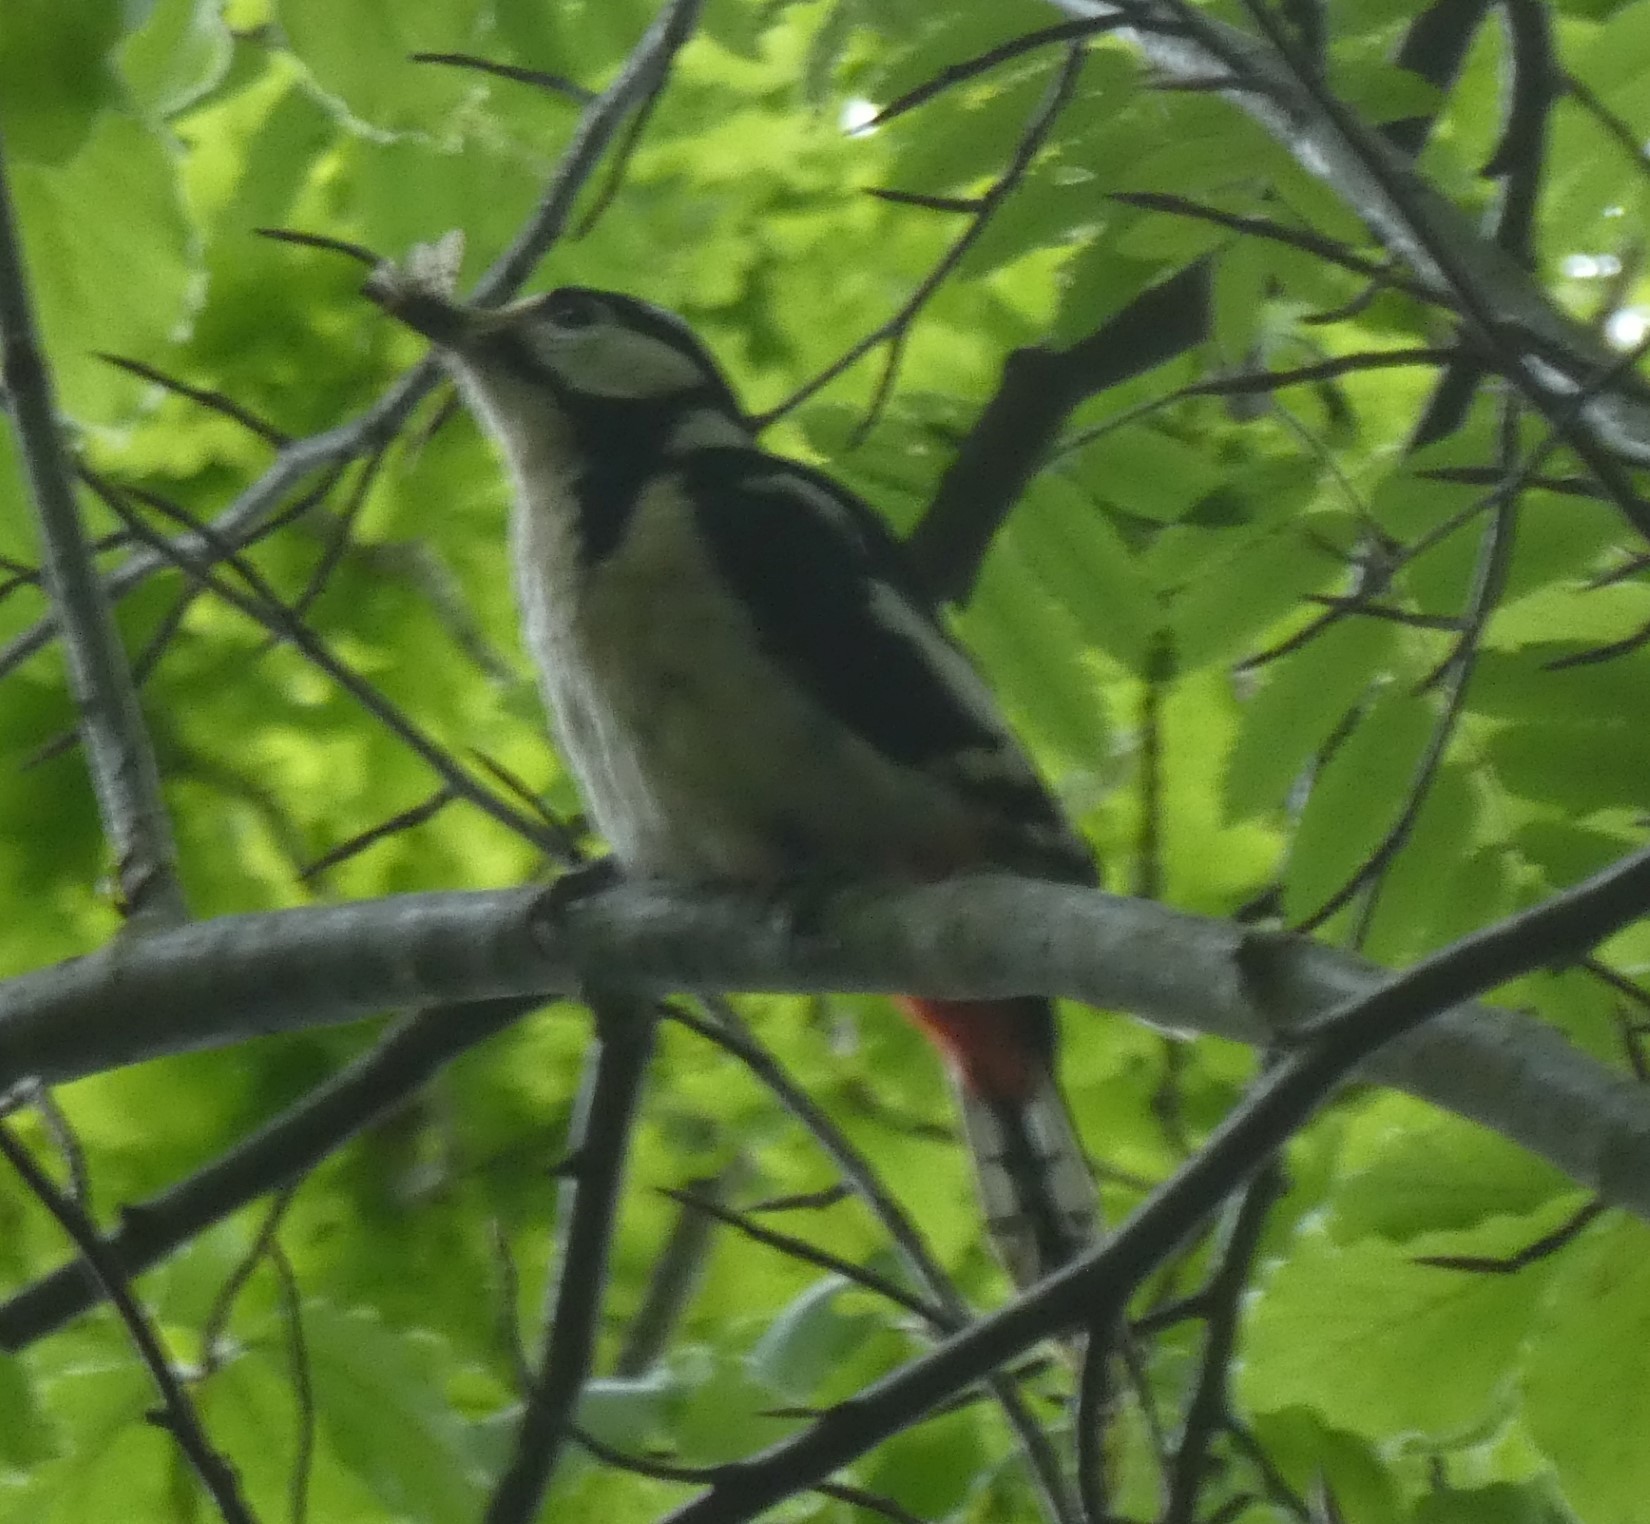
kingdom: Animalia
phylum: Chordata
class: Aves
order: Piciformes
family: Picidae
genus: Dendrocopos
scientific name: Dendrocopos major
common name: Great spotted woodpecker
